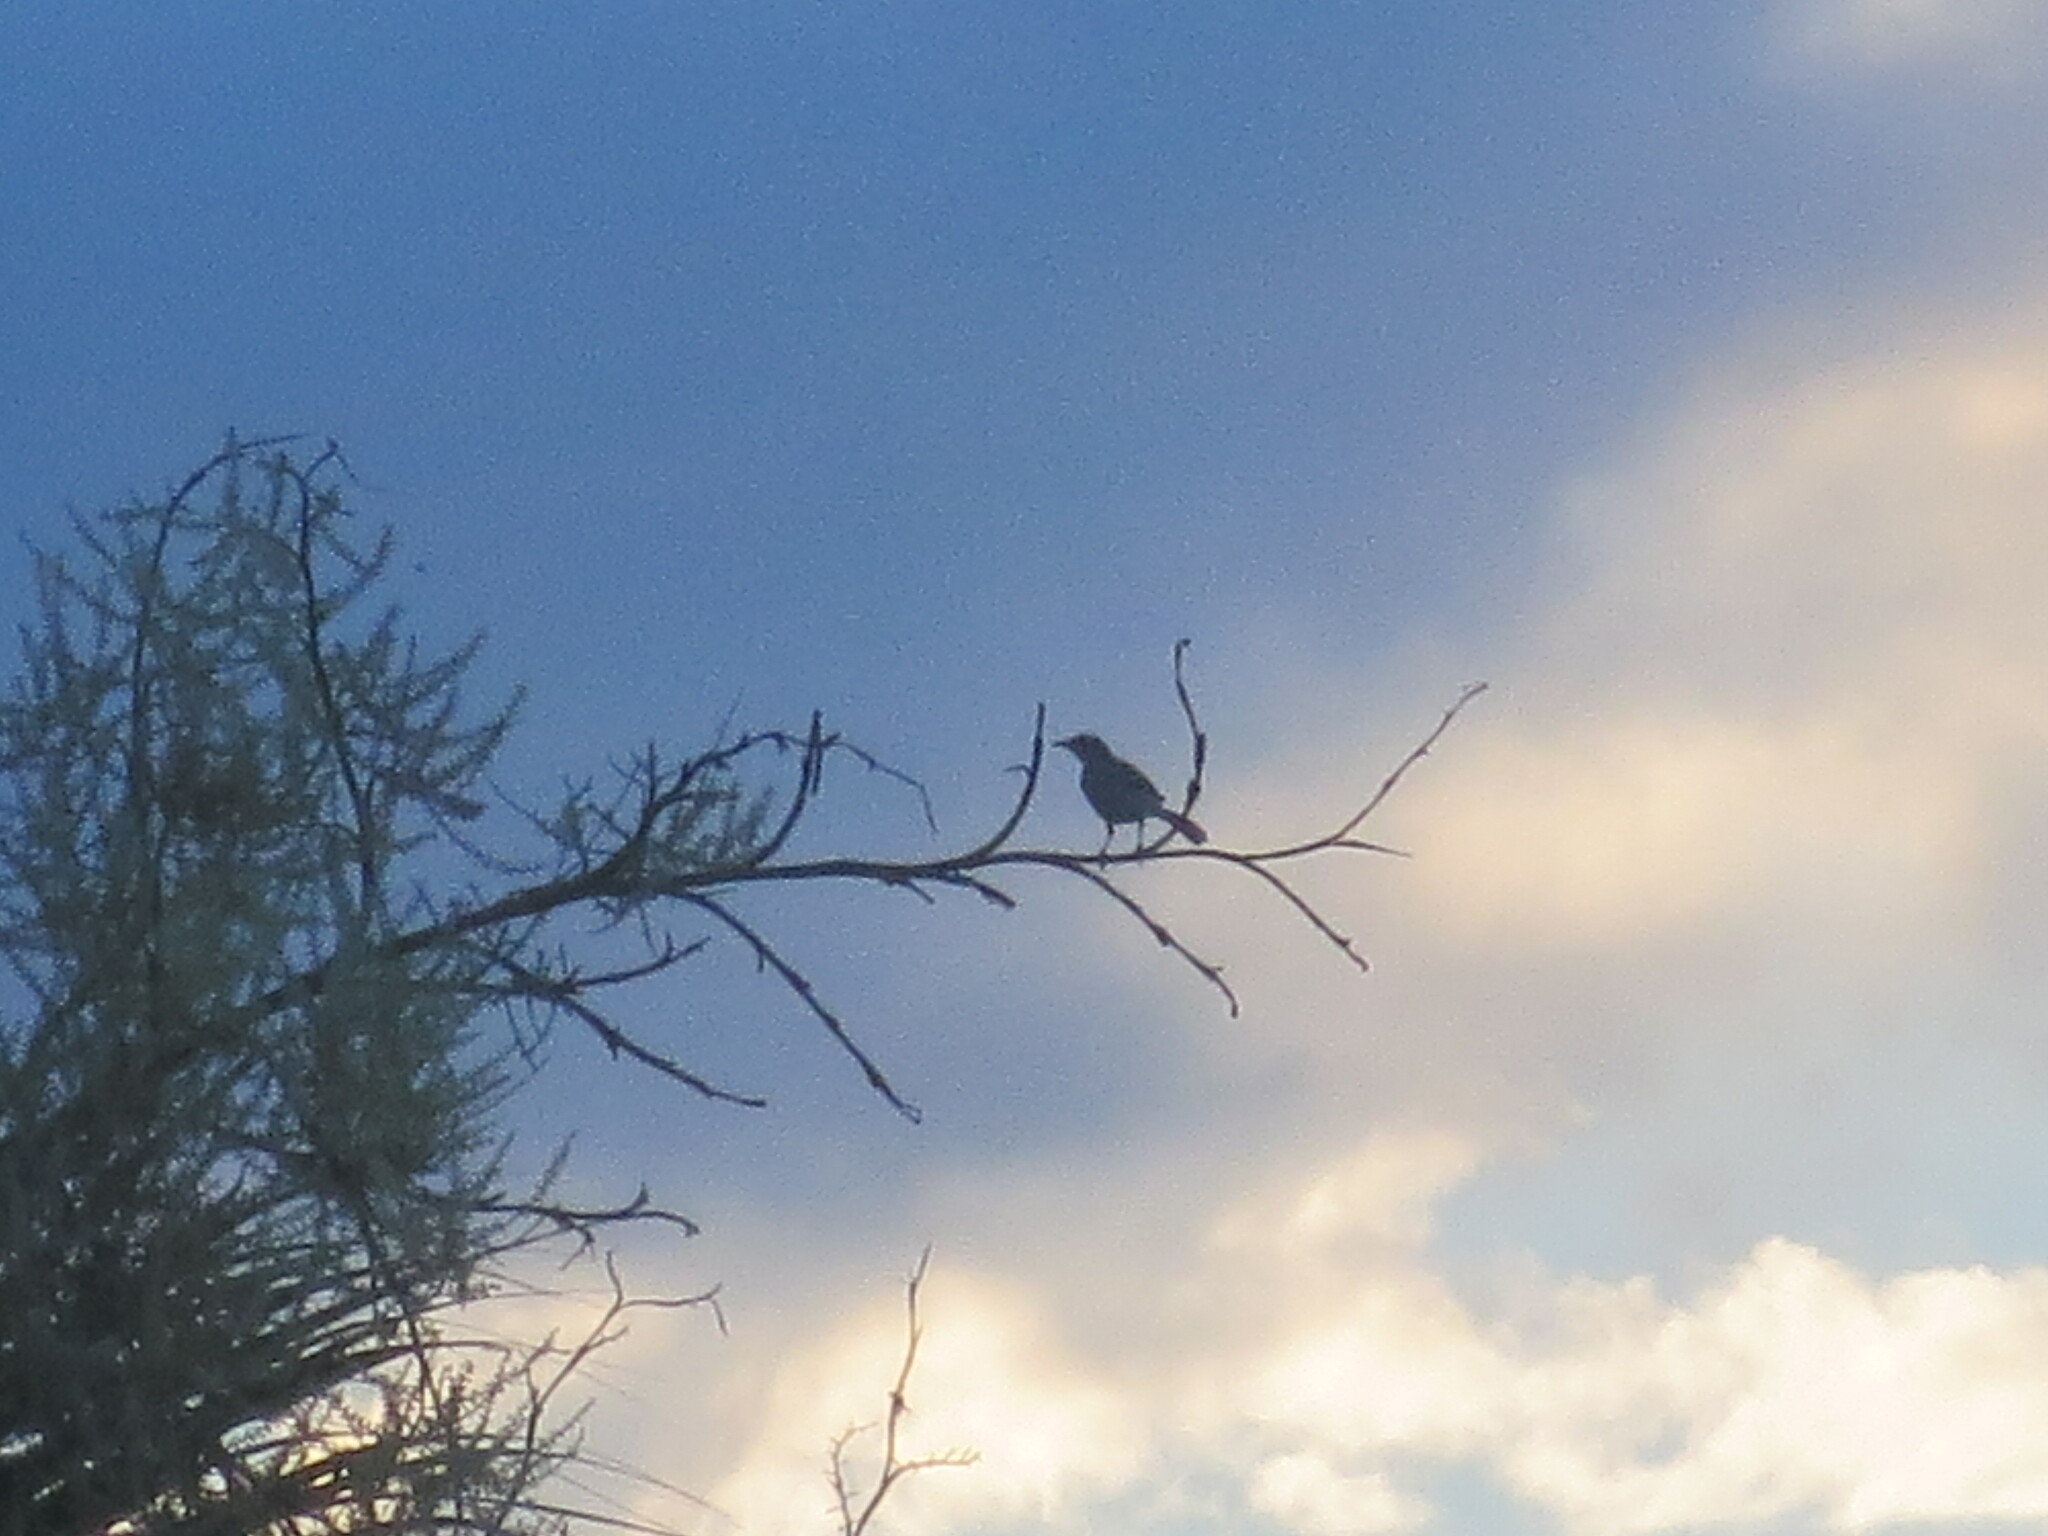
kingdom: Animalia
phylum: Chordata
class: Aves
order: Passeriformes
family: Mimidae
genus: Mimus
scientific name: Mimus polyglottos
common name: Northern mockingbird
